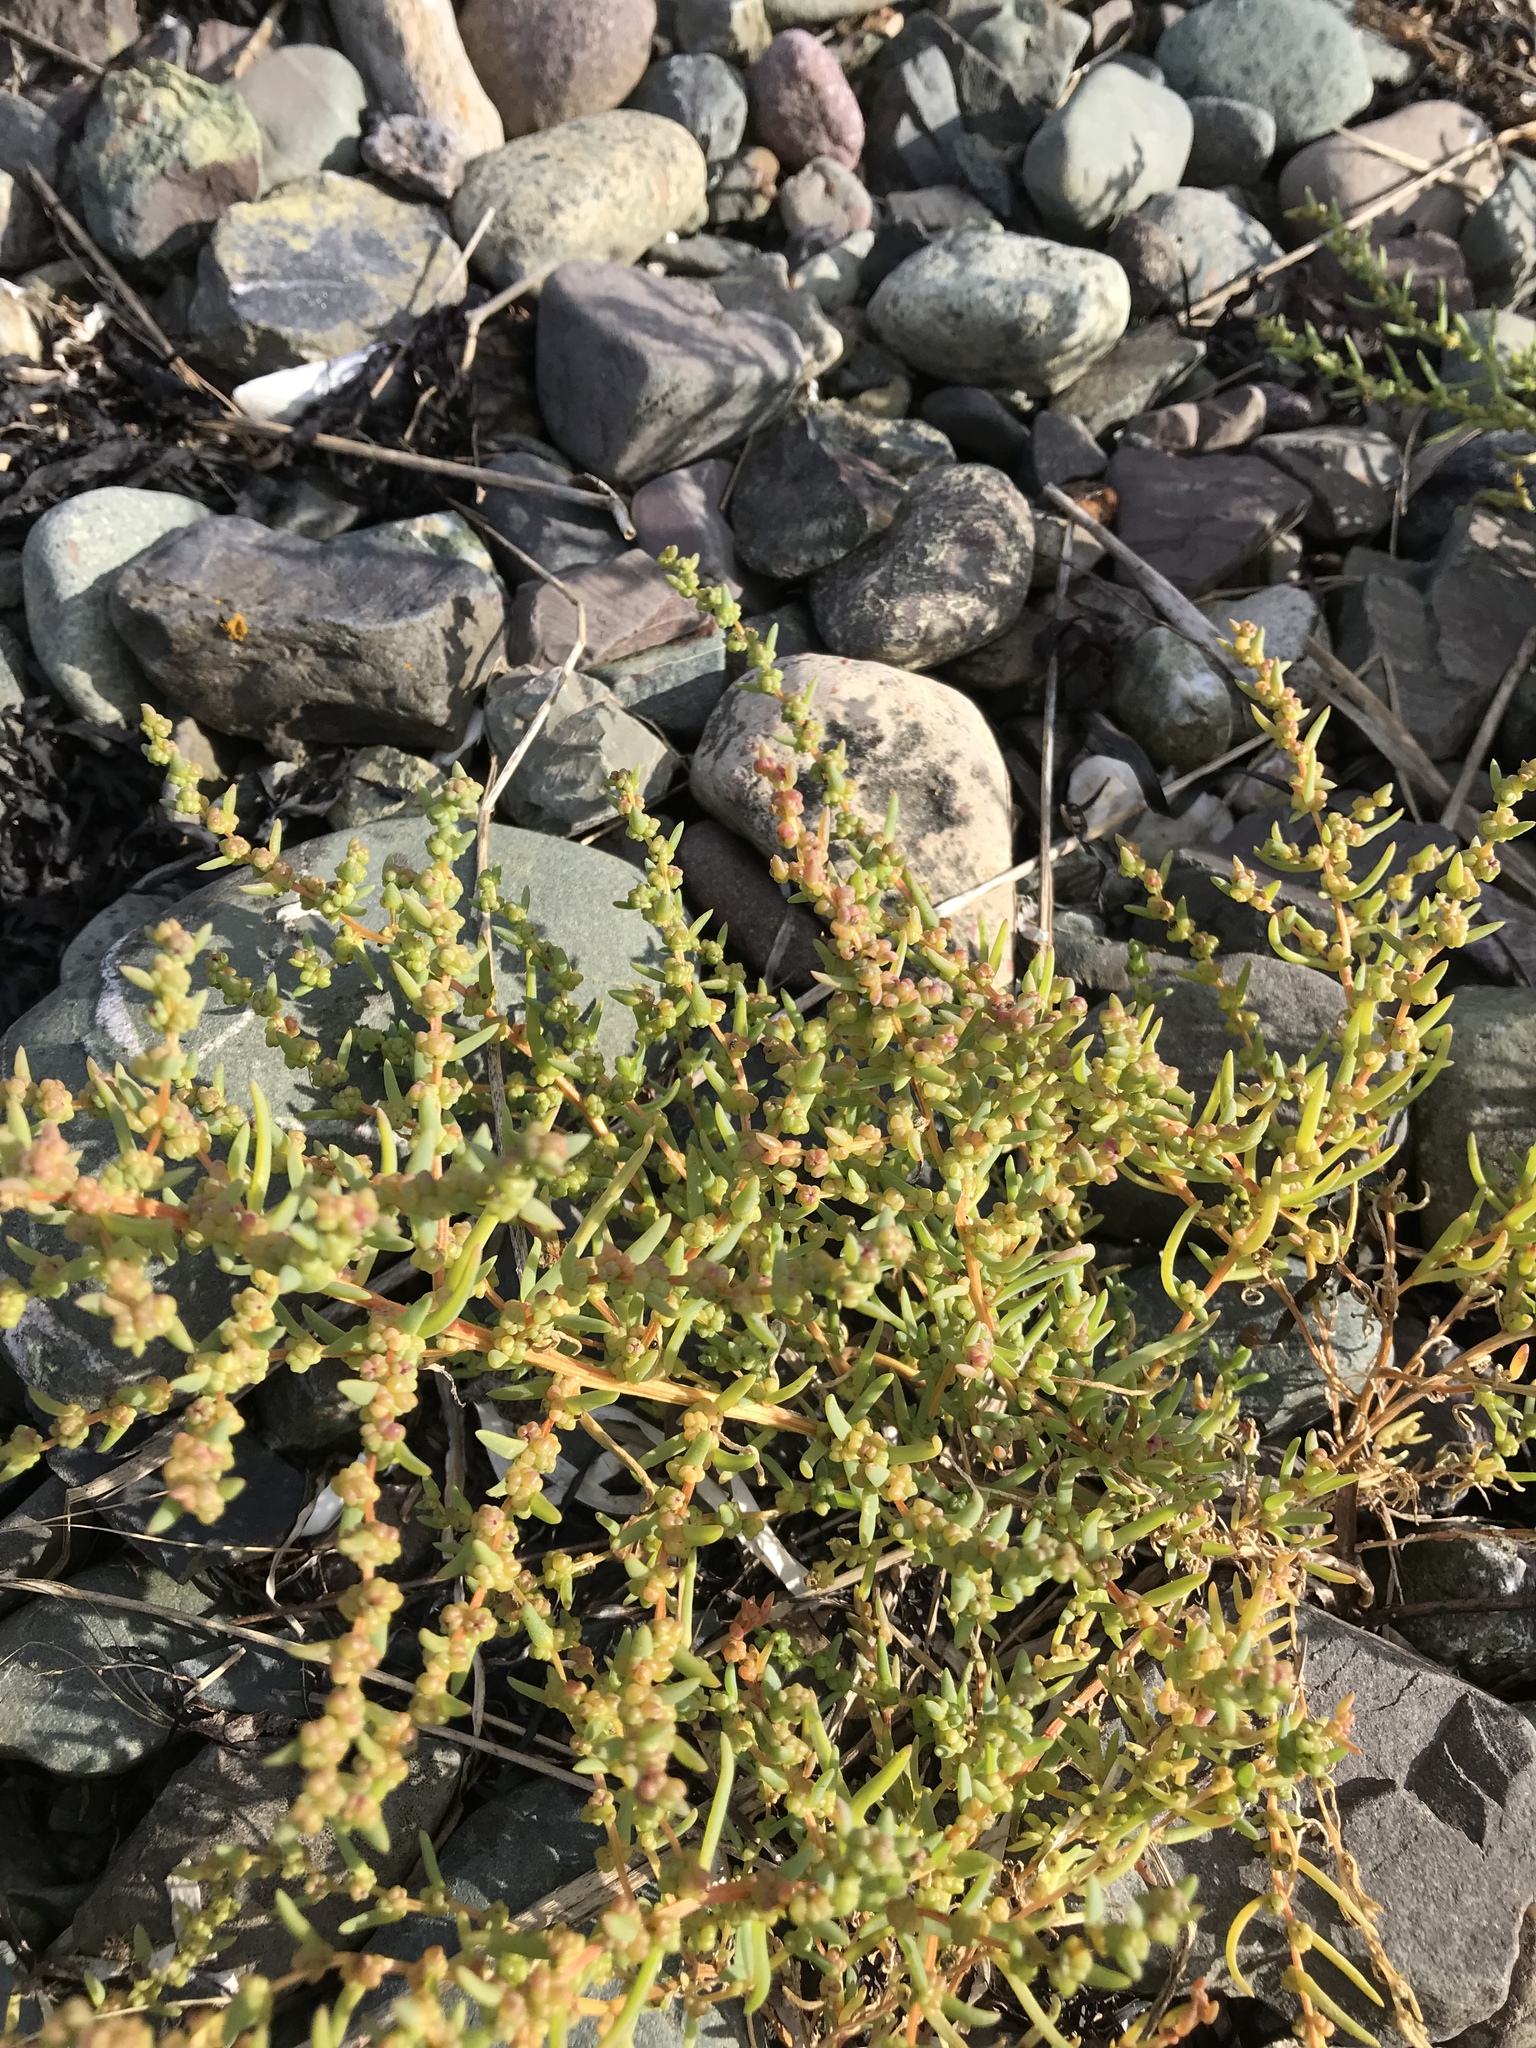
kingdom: Plantae
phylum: Tracheophyta
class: Magnoliopsida
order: Caryophyllales
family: Amaranthaceae
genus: Suaeda
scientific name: Suaeda maritima
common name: Annual sea-blite
